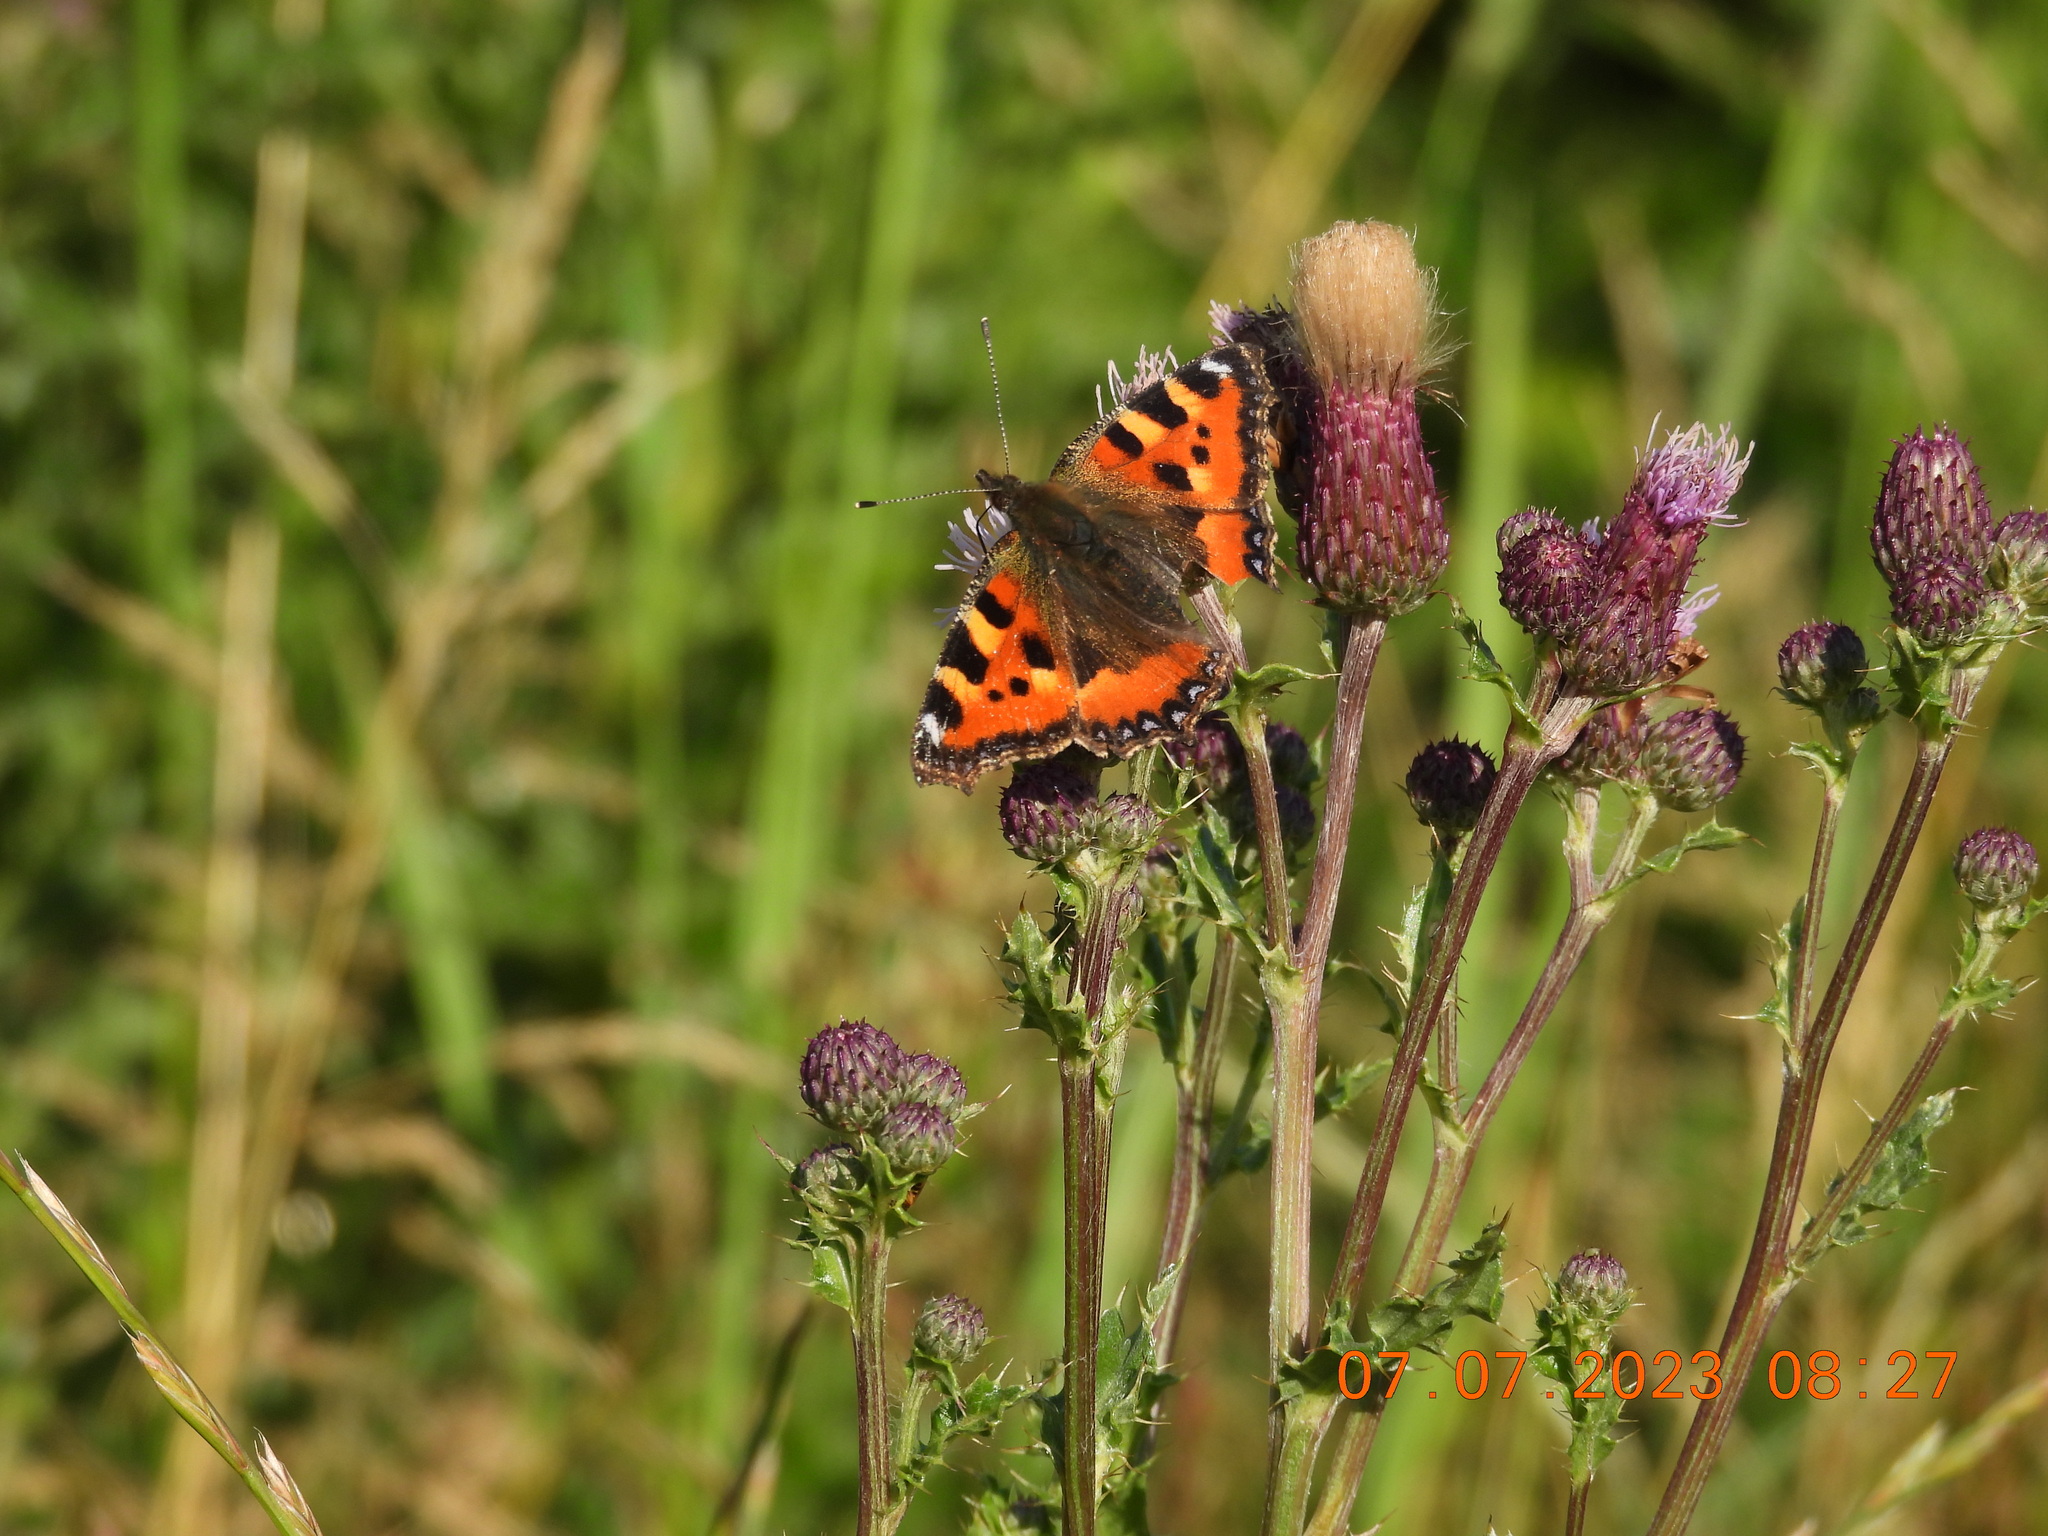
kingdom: Animalia
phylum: Arthropoda
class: Insecta
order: Lepidoptera
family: Nymphalidae
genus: Aglais
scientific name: Aglais urticae
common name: Small tortoiseshell
